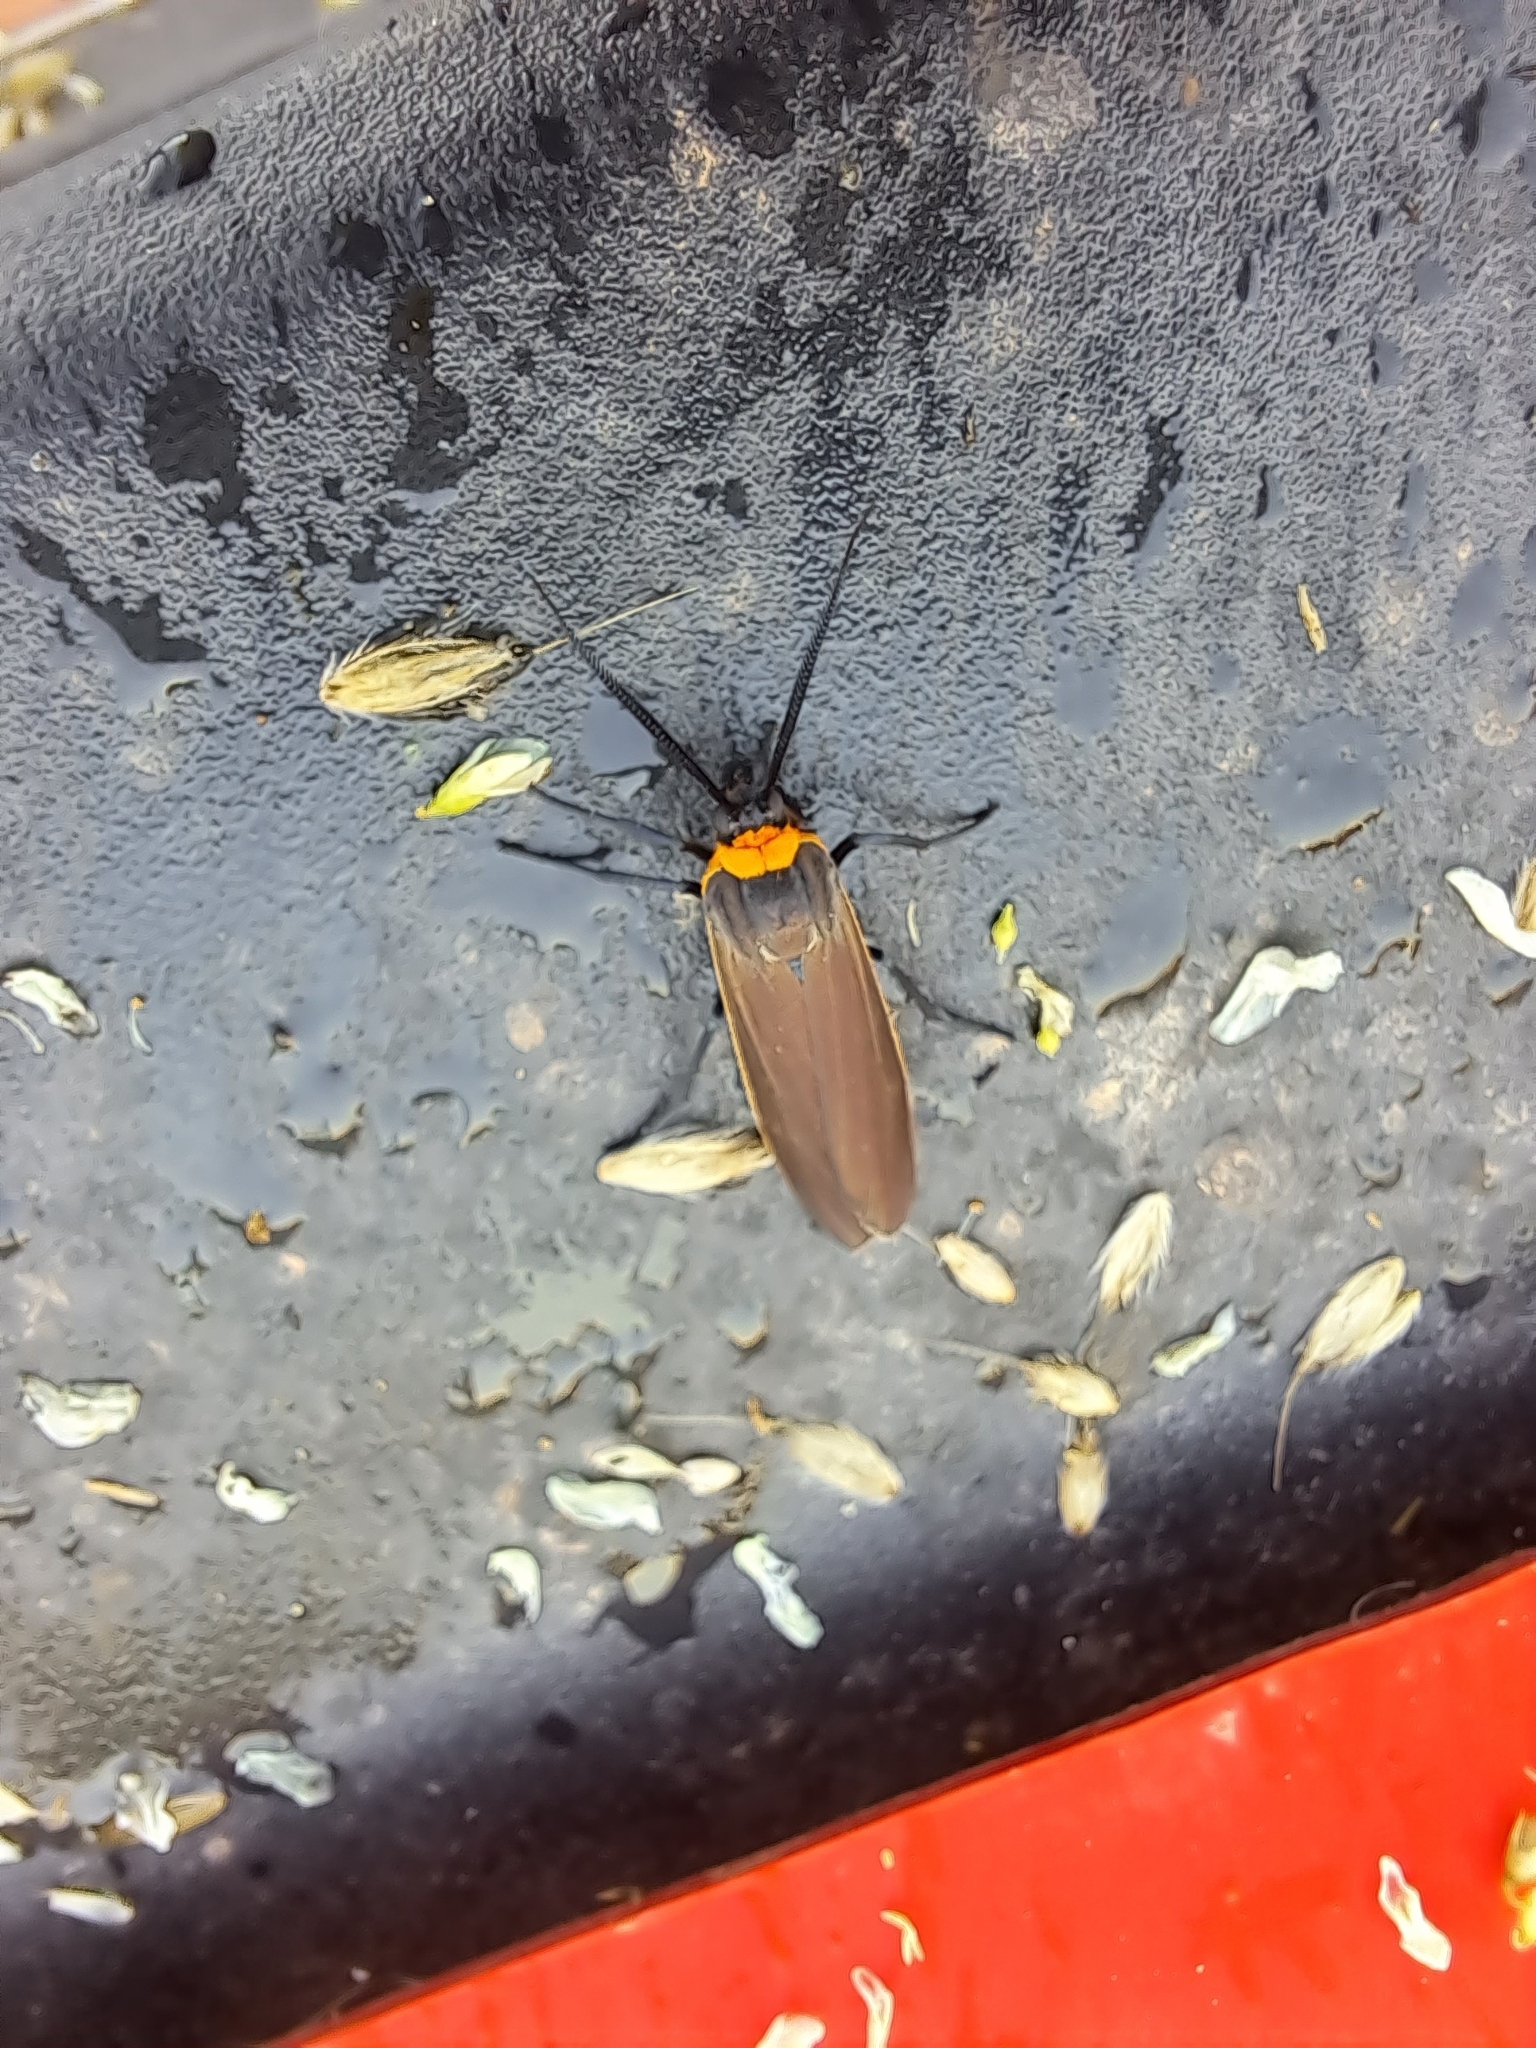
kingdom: Animalia
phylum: Arthropoda
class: Insecta
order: Lepidoptera
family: Erebidae
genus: Cisseps
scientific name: Cisseps fulvicollis
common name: Yellow-collared scape moth
